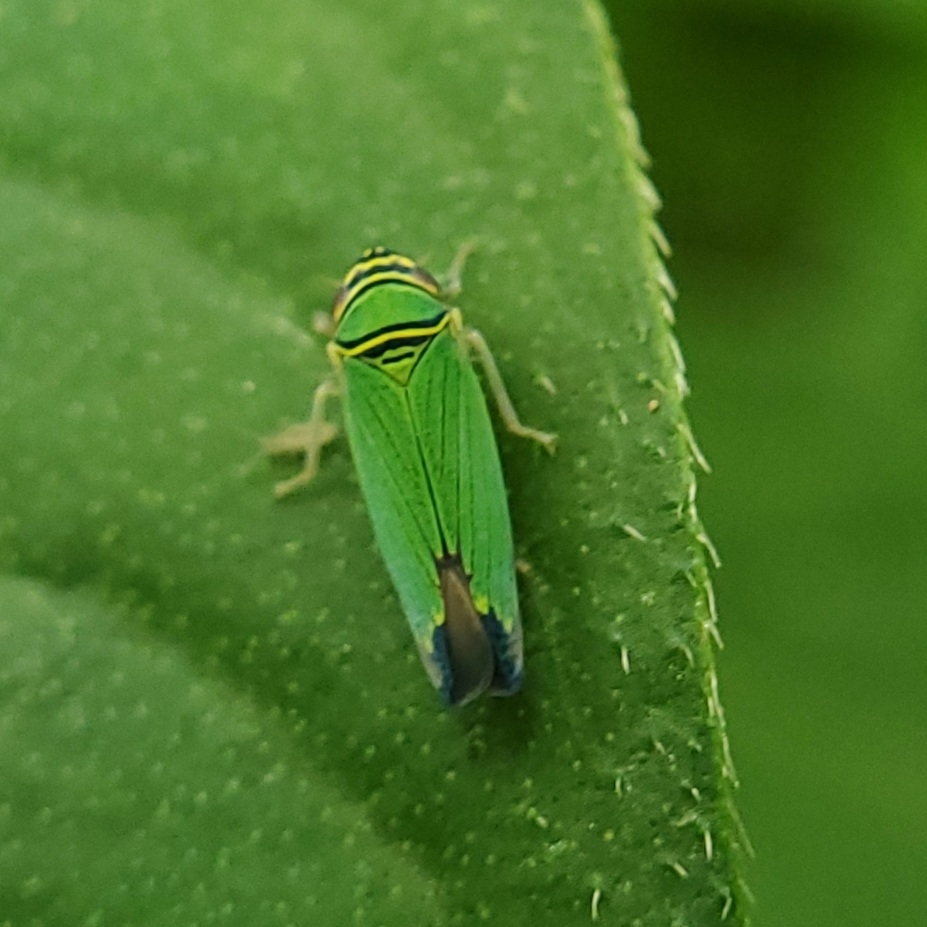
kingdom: Animalia
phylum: Arthropoda
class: Insecta
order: Hemiptera
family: Cicadellidae
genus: Tylozygus
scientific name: Tylozygus geometricus
